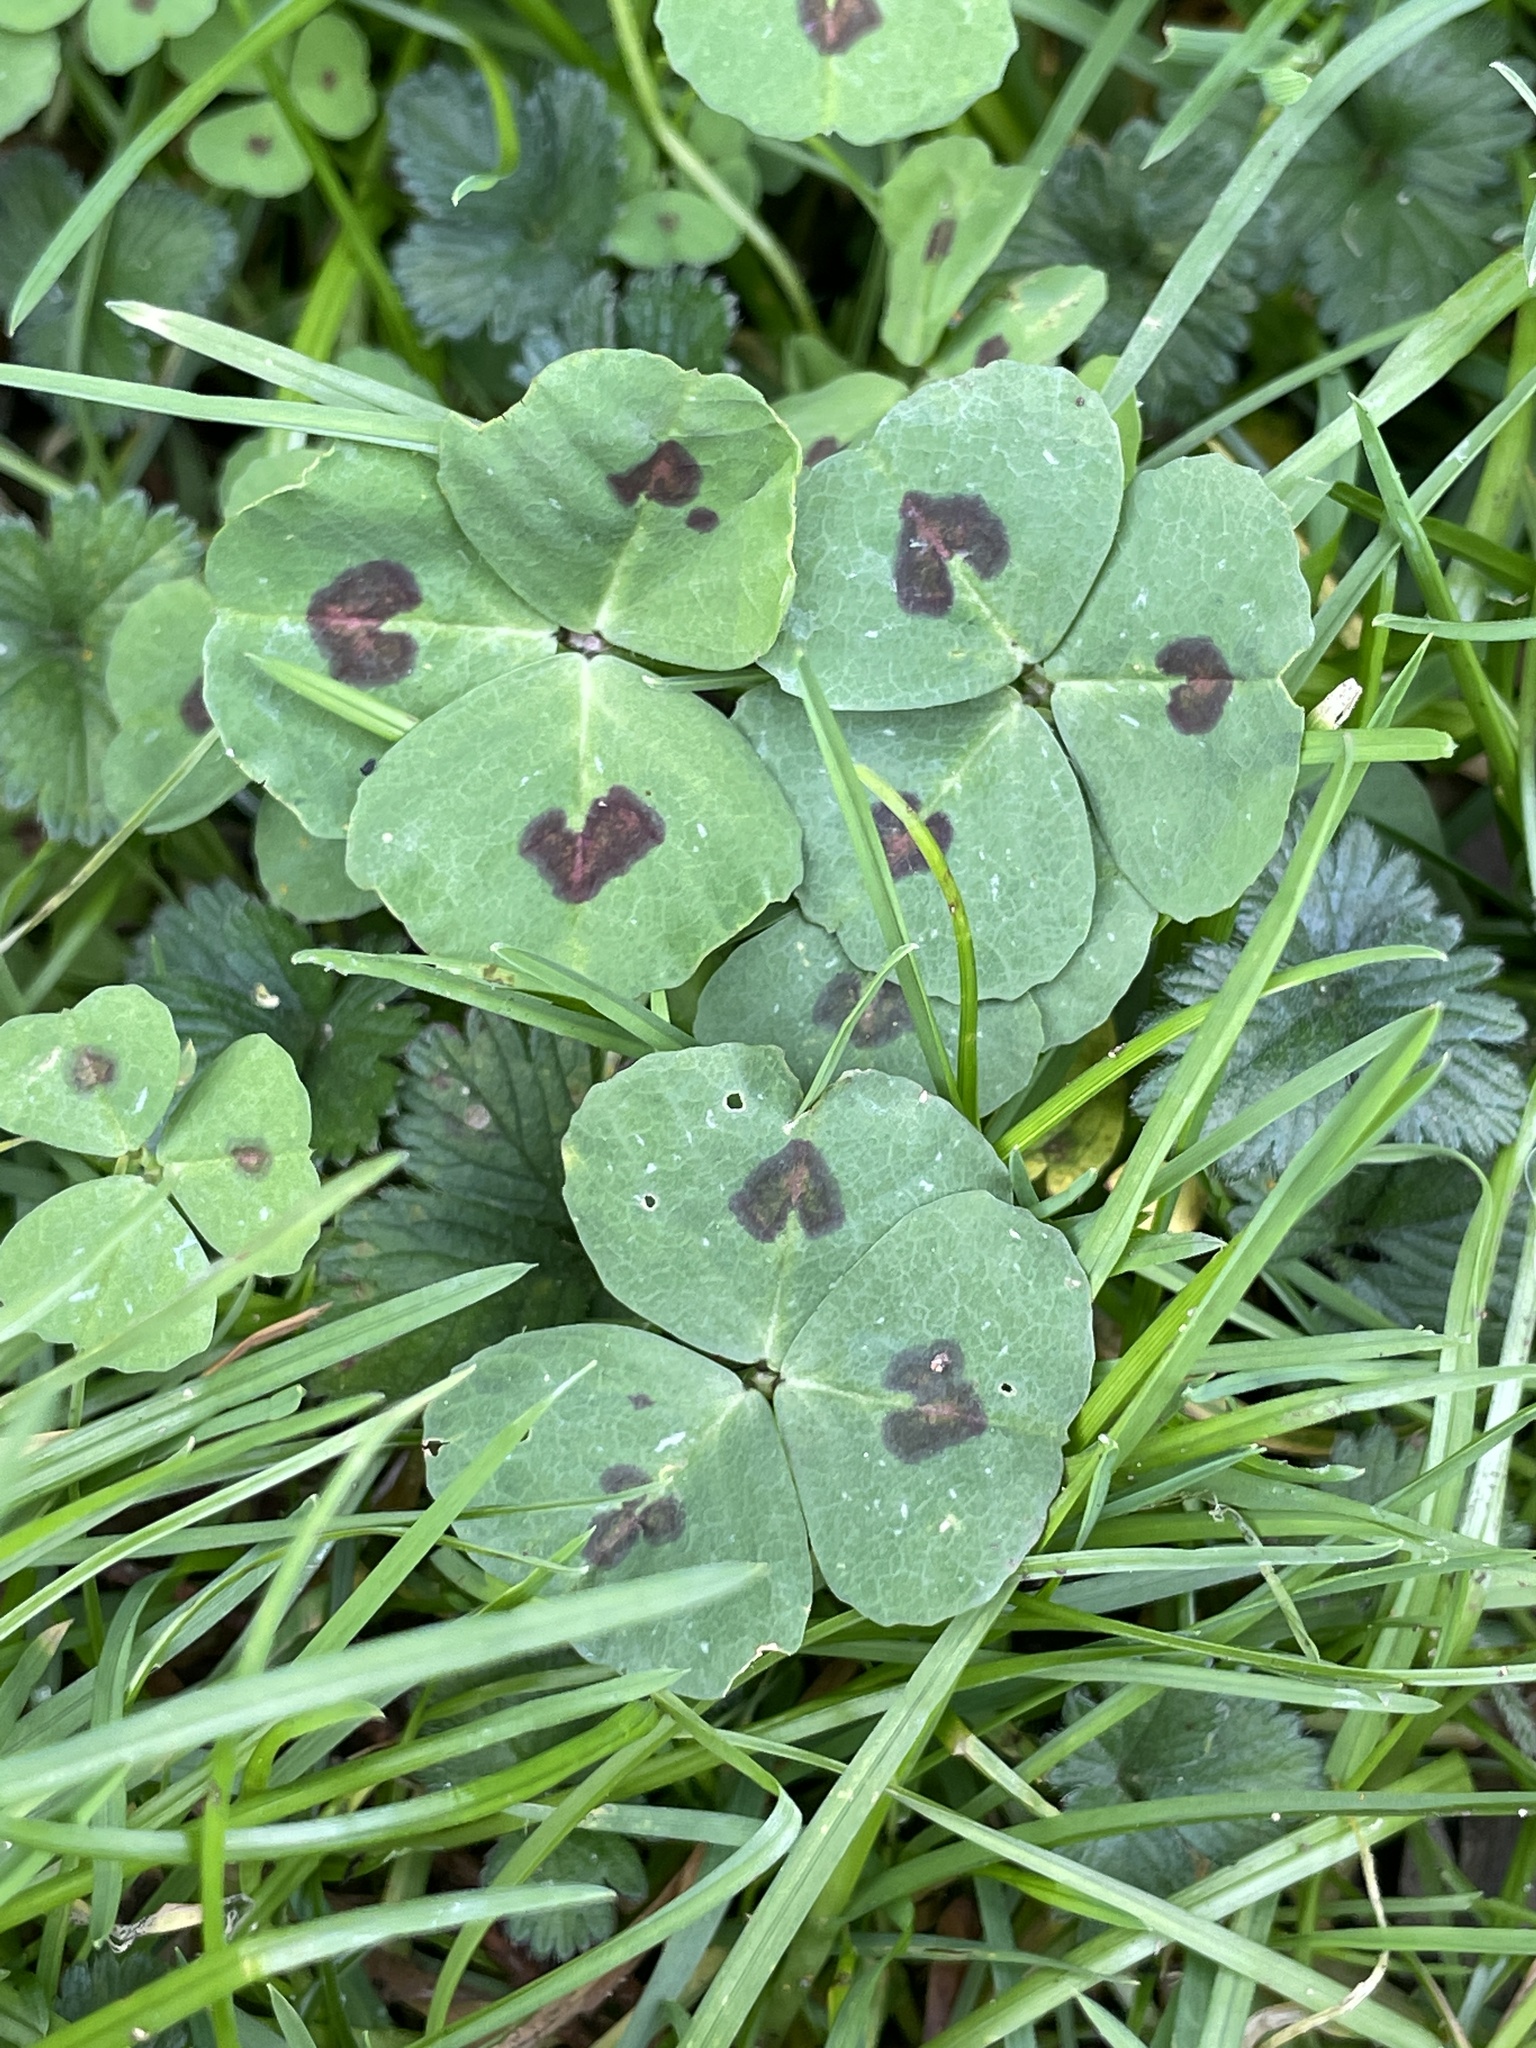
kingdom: Plantae
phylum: Tracheophyta
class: Magnoliopsida
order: Fabales
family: Fabaceae
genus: Medicago
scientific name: Medicago arabica
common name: Spotted medick
